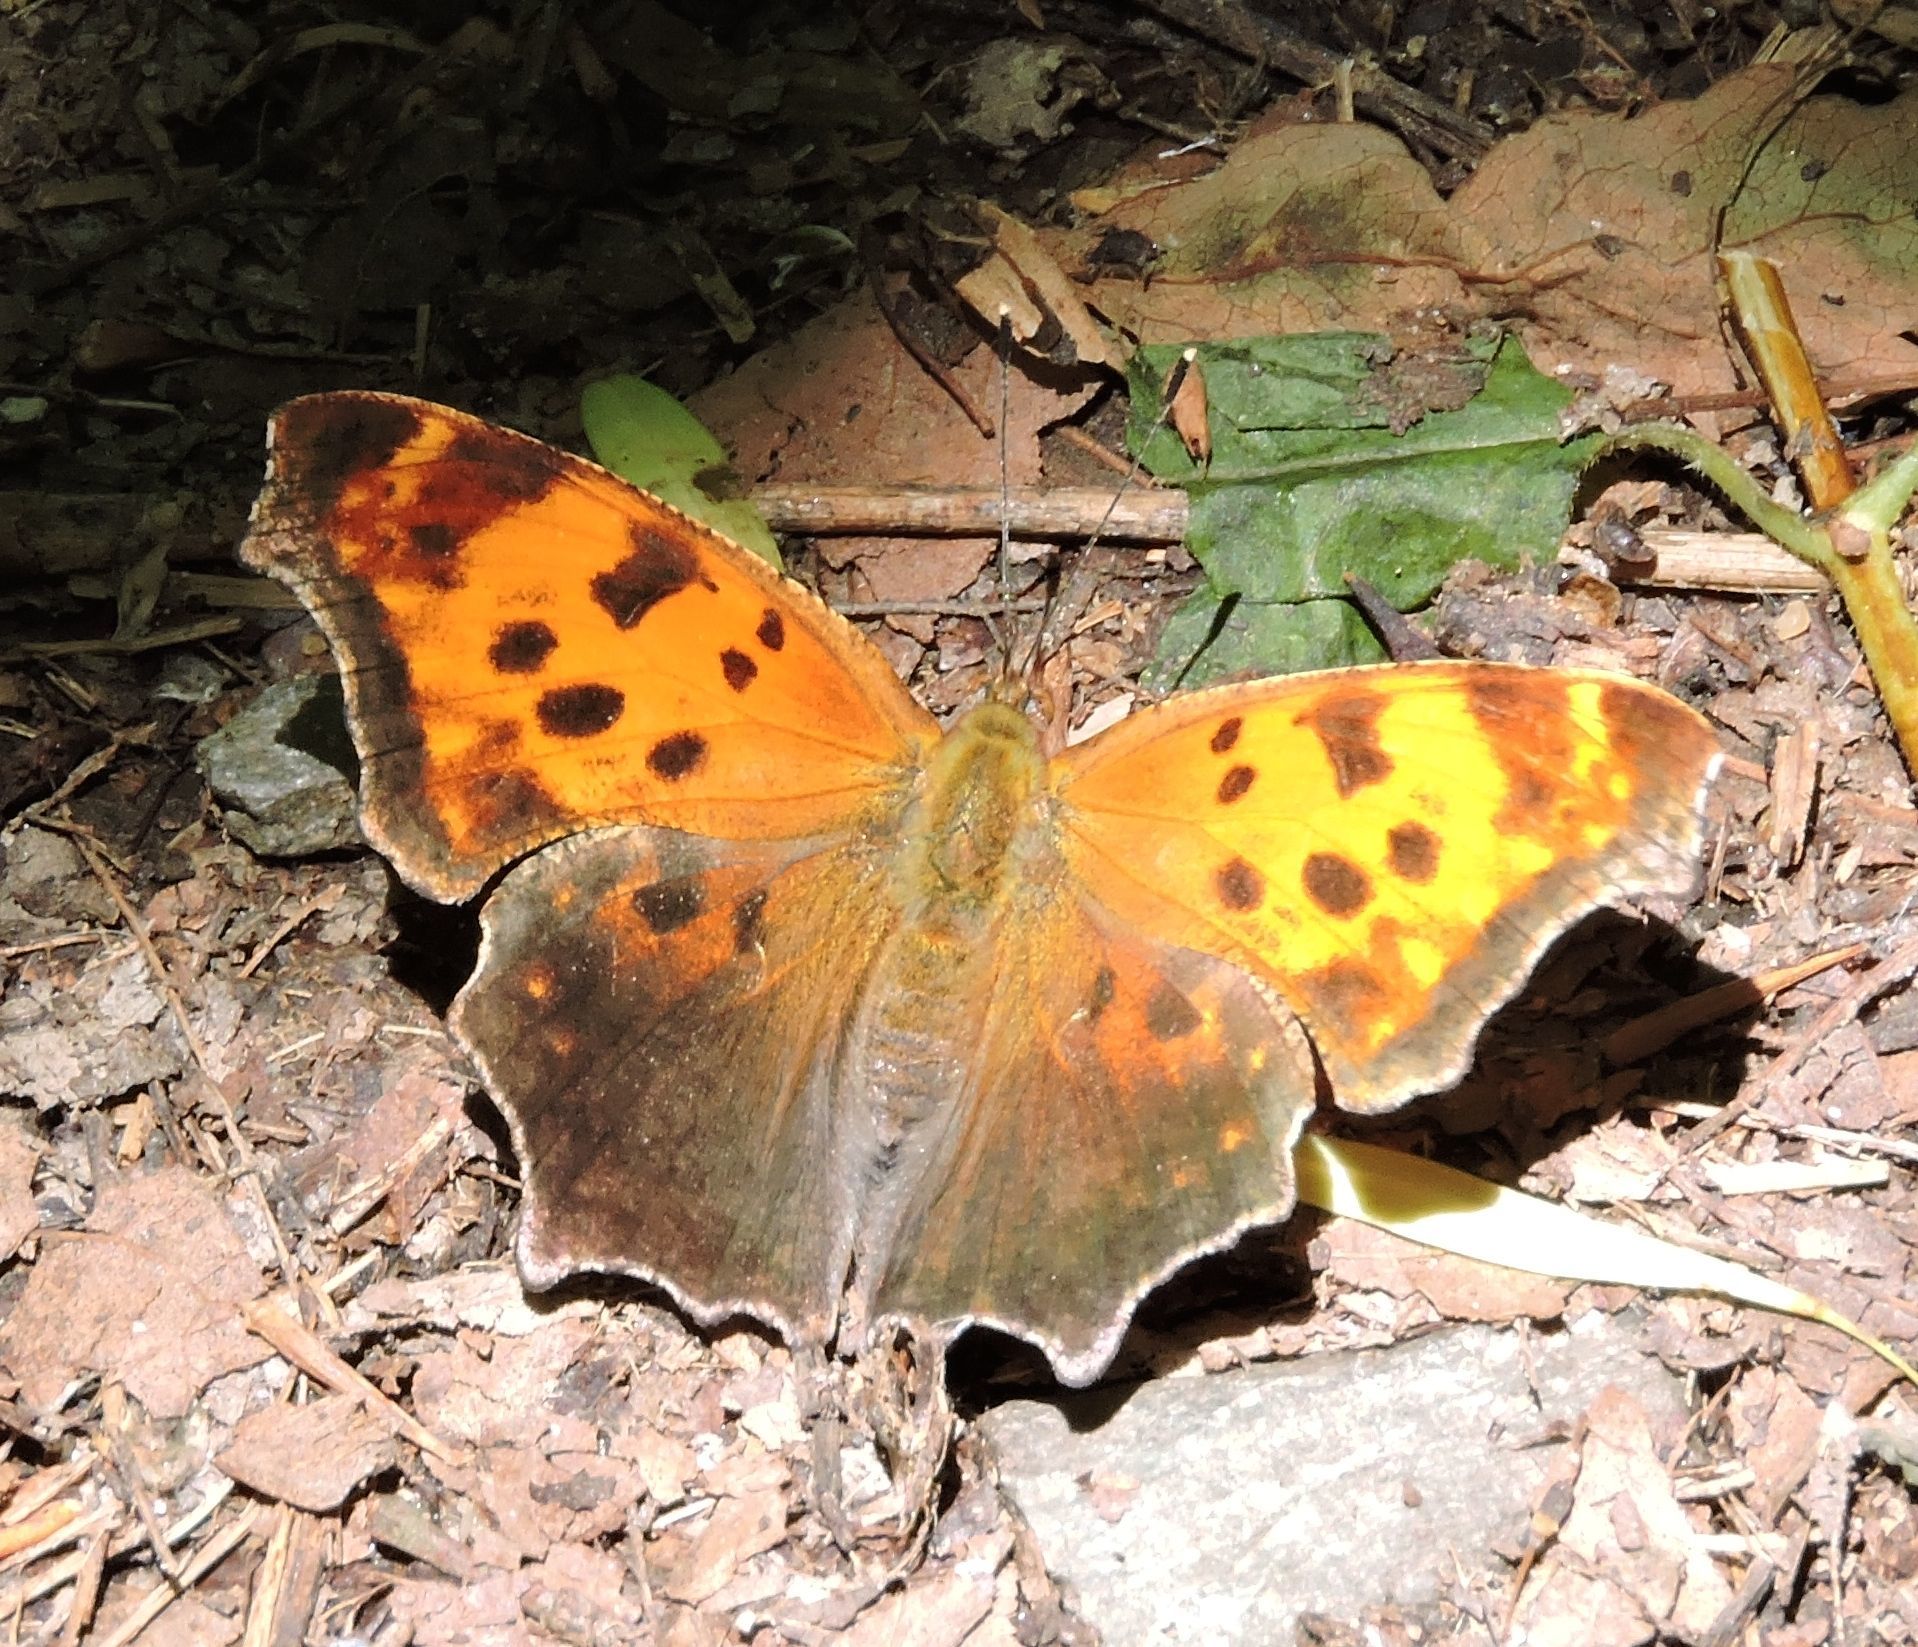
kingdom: Animalia
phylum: Arthropoda
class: Insecta
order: Lepidoptera
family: Nymphalidae
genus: Polygonia
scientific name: Polygonia comma
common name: Eastern comma
